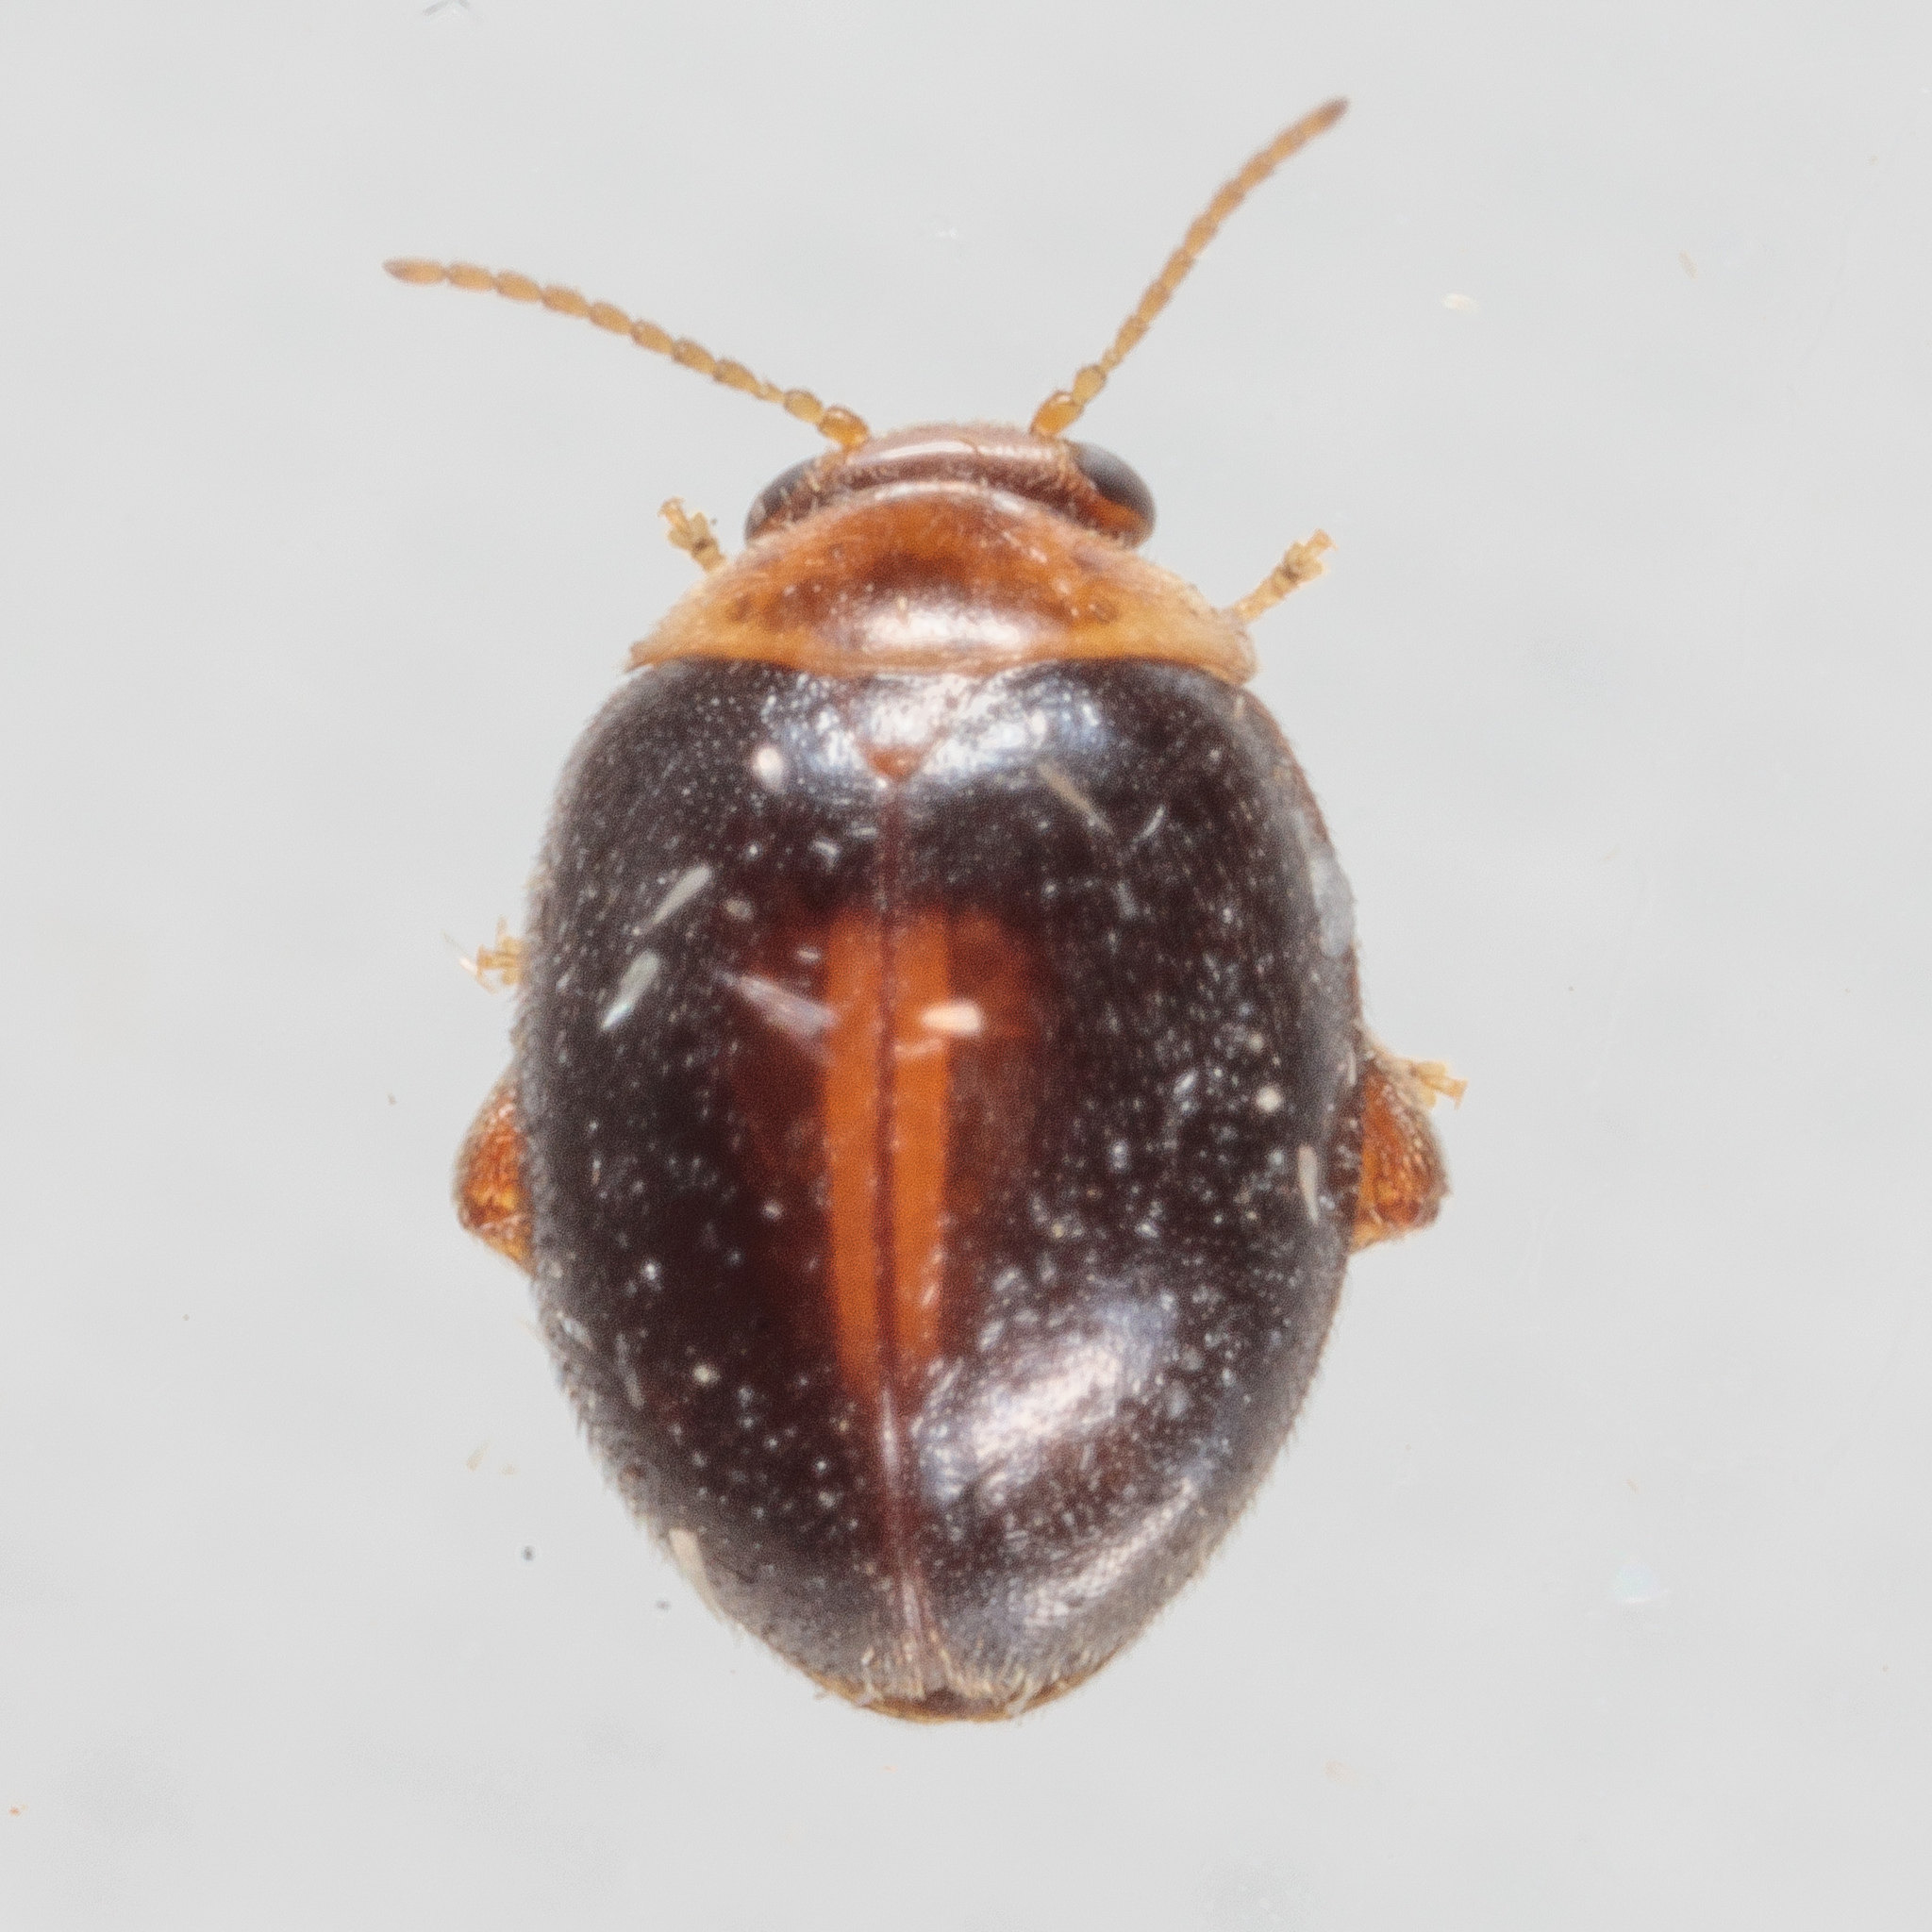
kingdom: Animalia
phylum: Arthropoda
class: Insecta
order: Coleoptera
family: Scirtidae
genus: Scirtes
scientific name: Scirtes orbiculatus
